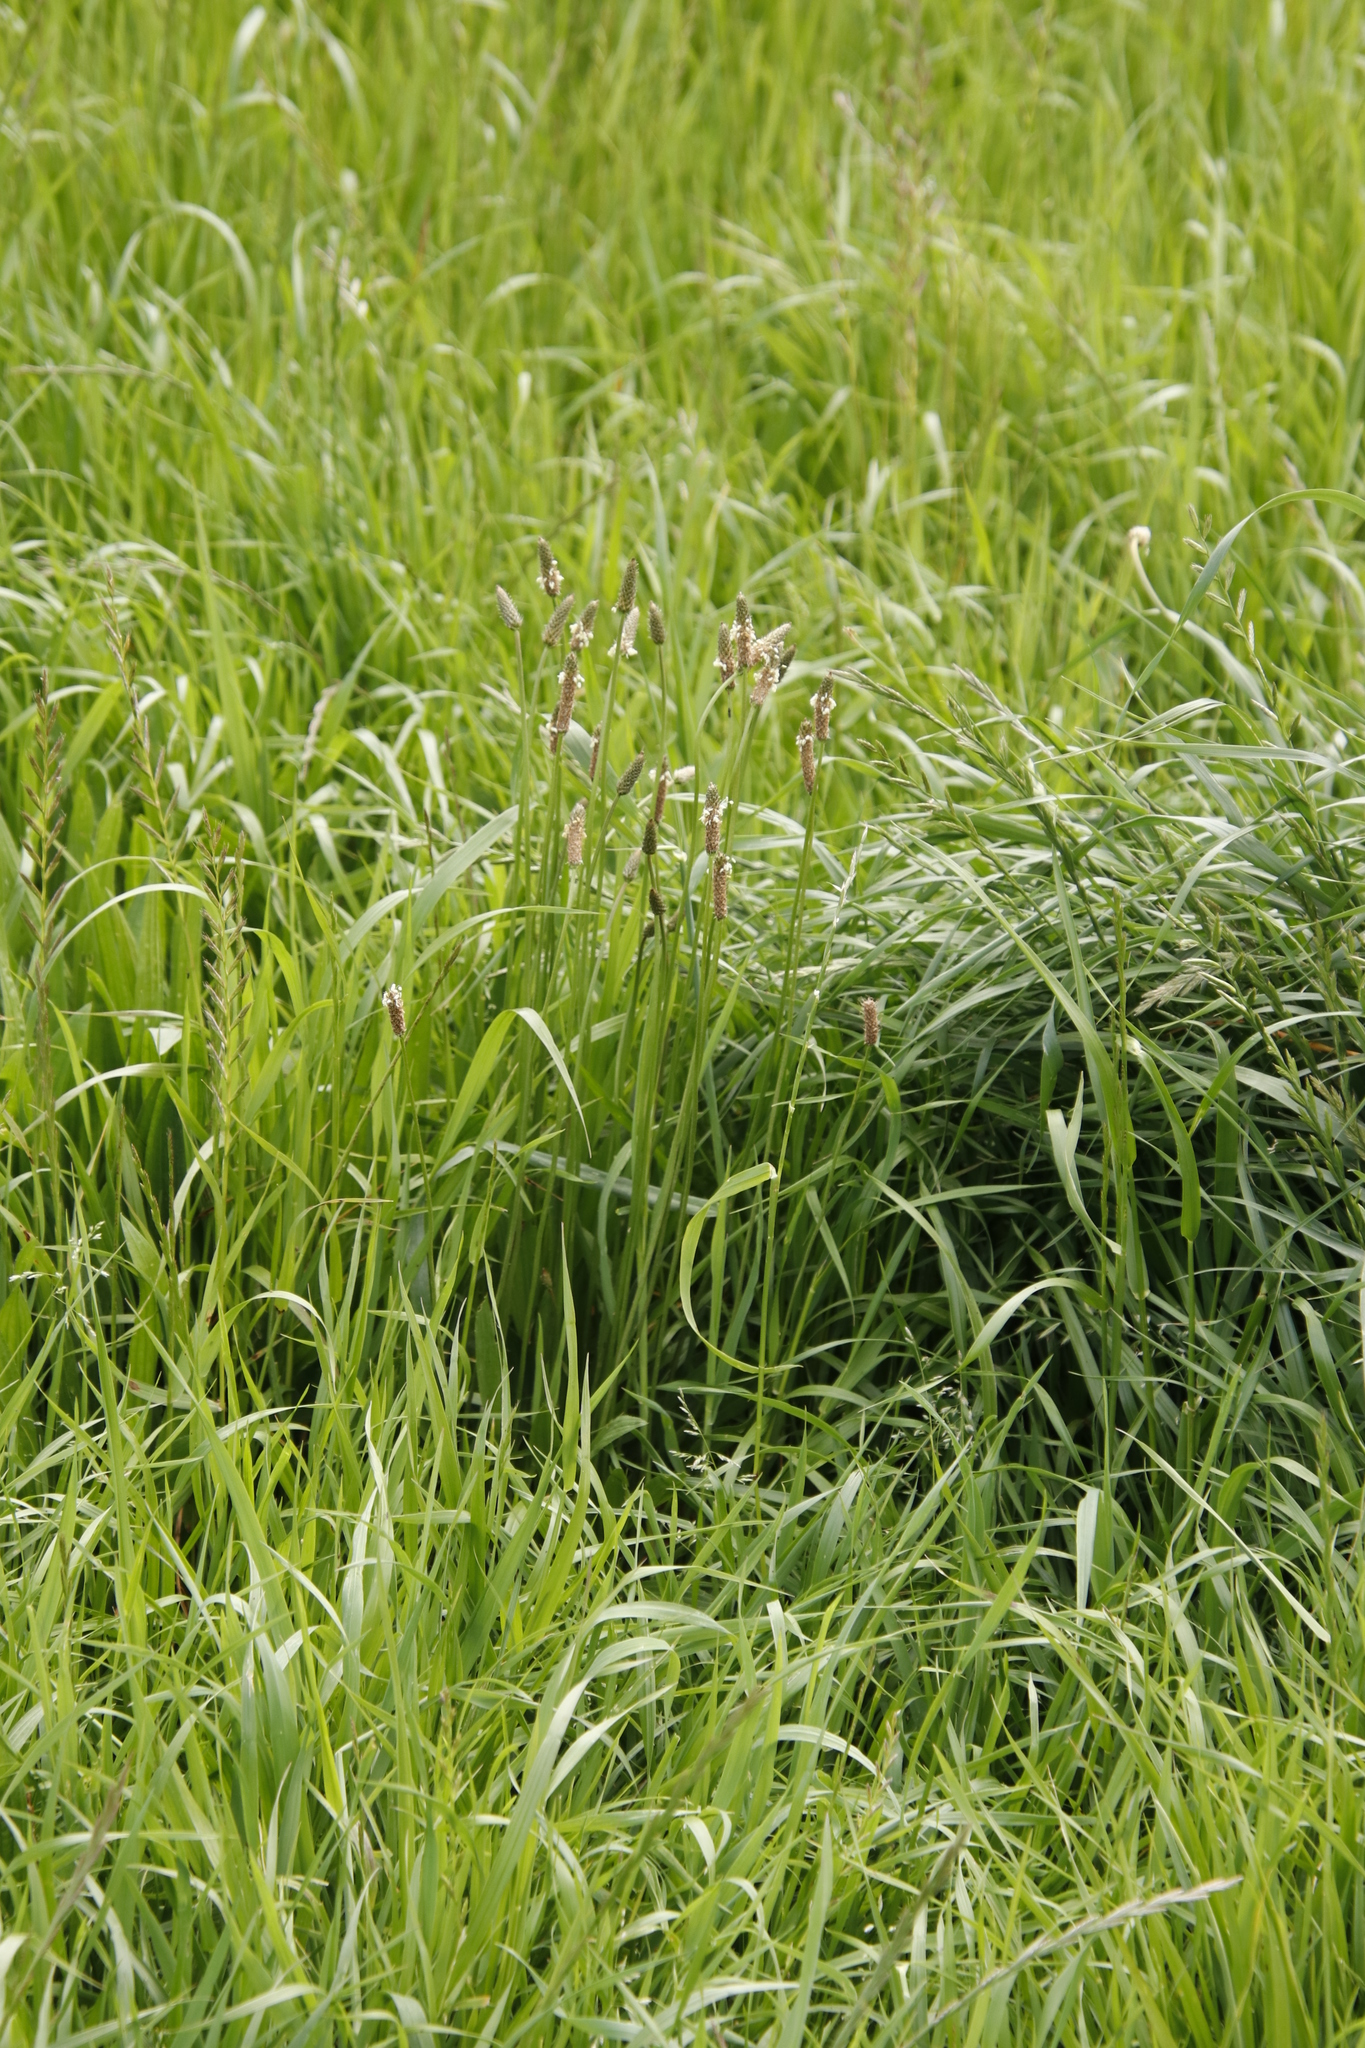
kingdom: Plantae
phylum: Tracheophyta
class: Magnoliopsida
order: Lamiales
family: Plantaginaceae
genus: Plantago
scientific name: Plantago lanceolata
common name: Ribwort plantain
